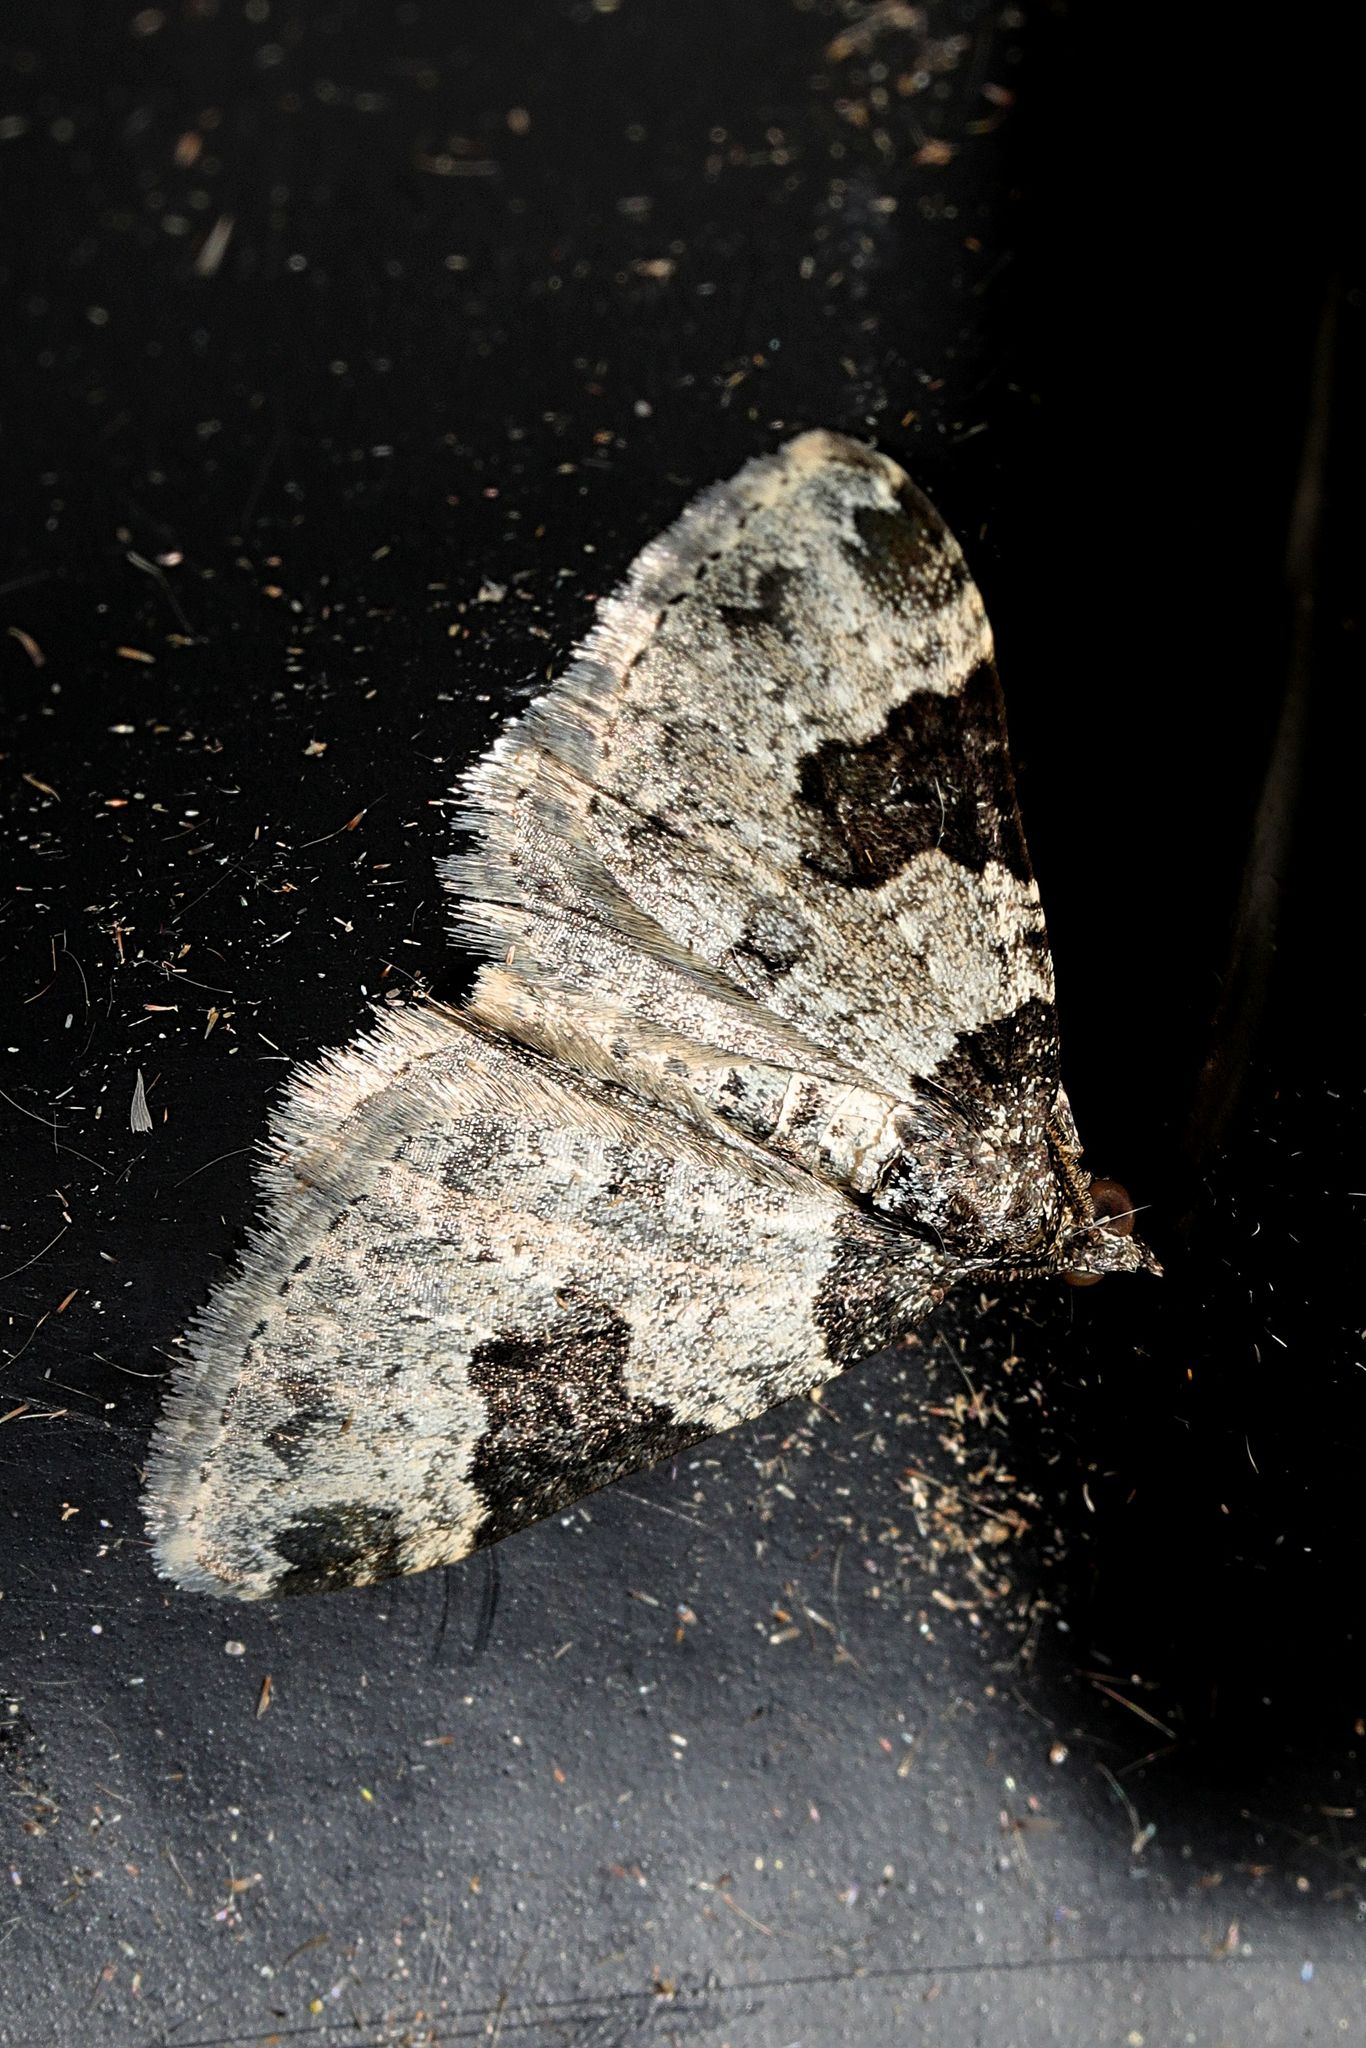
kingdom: Animalia
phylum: Arthropoda
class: Insecta
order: Lepidoptera
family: Geometridae
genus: Xanthorhoe
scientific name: Xanthorhoe fluctuata
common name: Garden carpet
